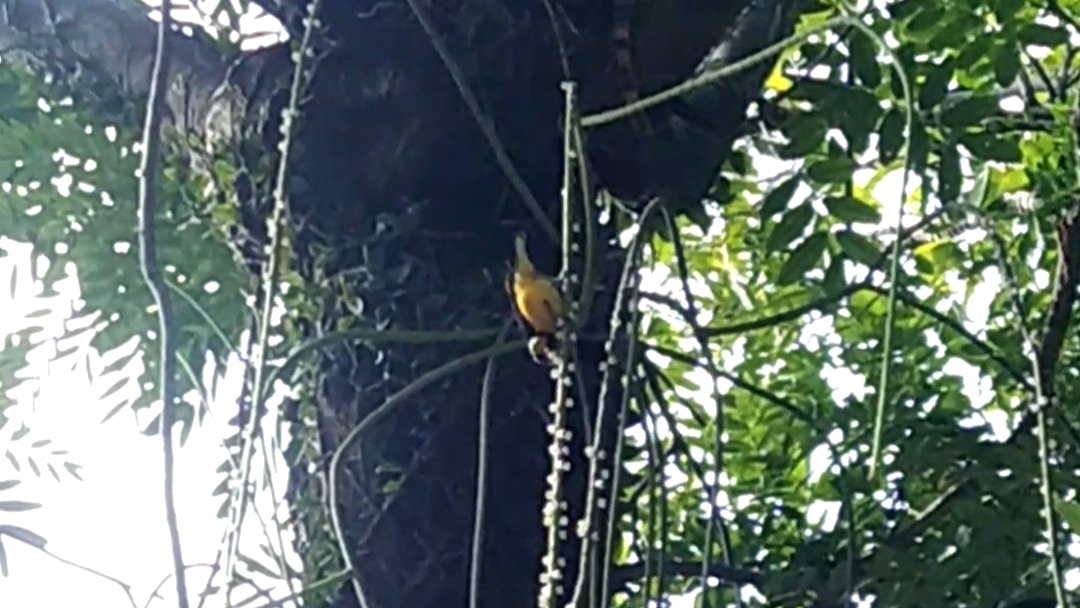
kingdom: Animalia
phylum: Chordata
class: Aves
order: Passeriformes
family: Fringillidae
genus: Euphonia
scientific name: Euphonia violacea
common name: Violaceous euphonia
